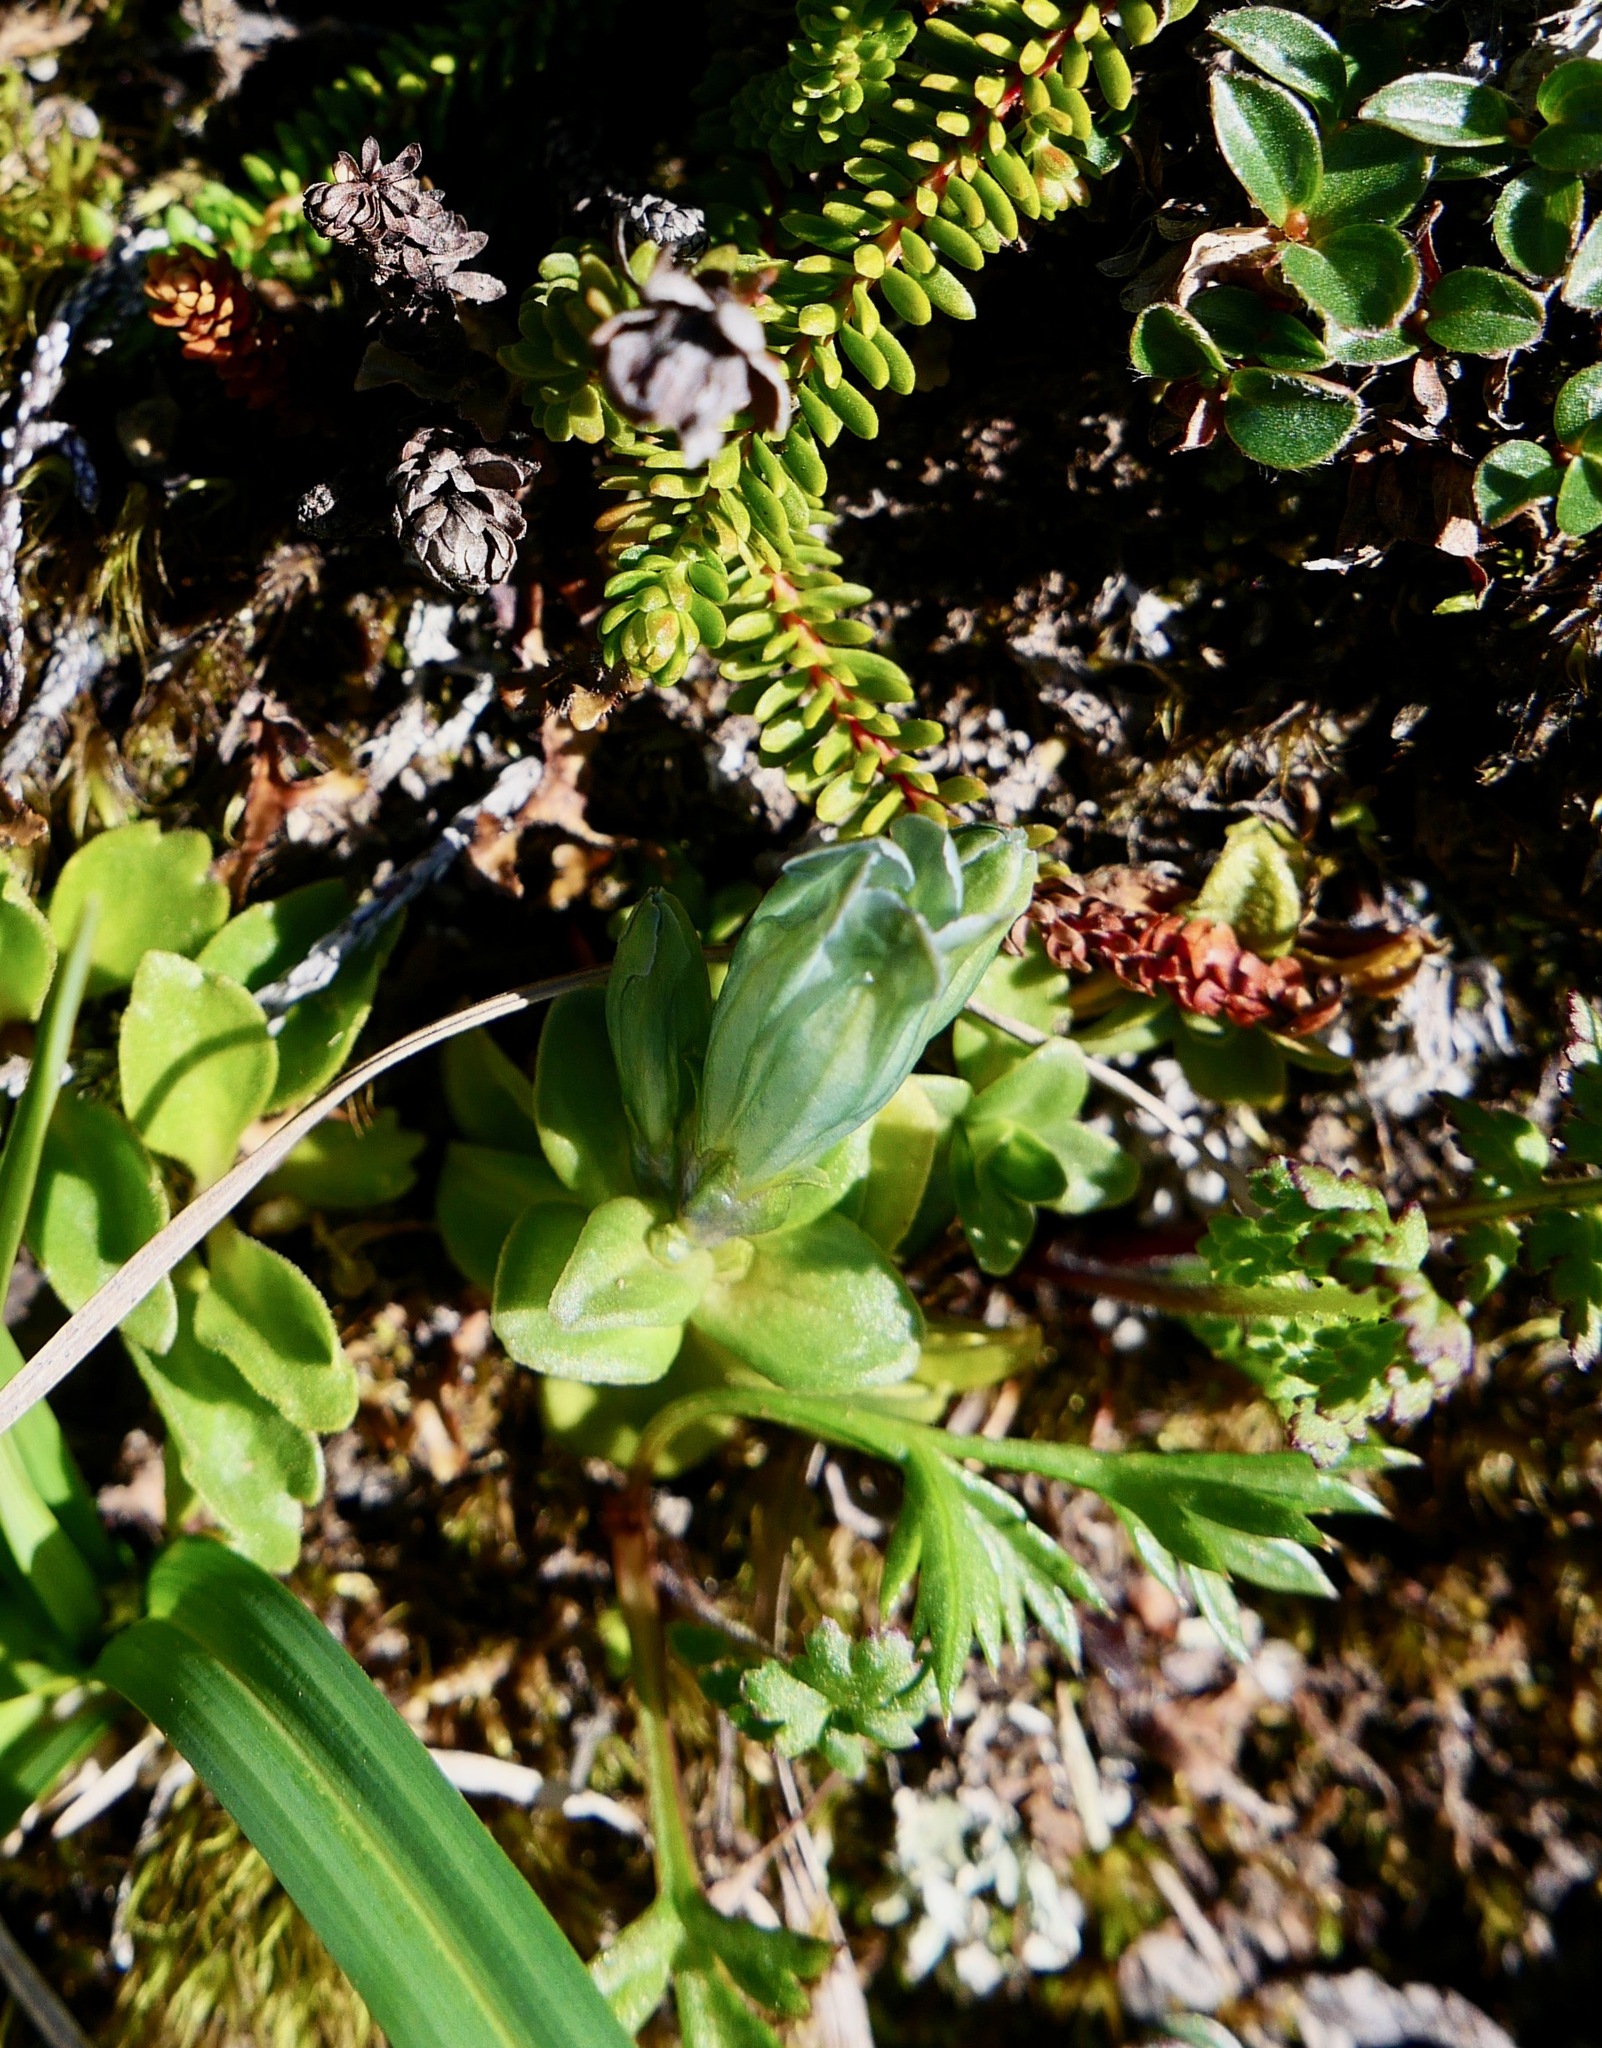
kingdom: Plantae
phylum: Tracheophyta
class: Magnoliopsida
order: Gentianales
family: Gentianaceae
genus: Gentiana
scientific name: Gentiana glauca
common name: Alpine gentian
